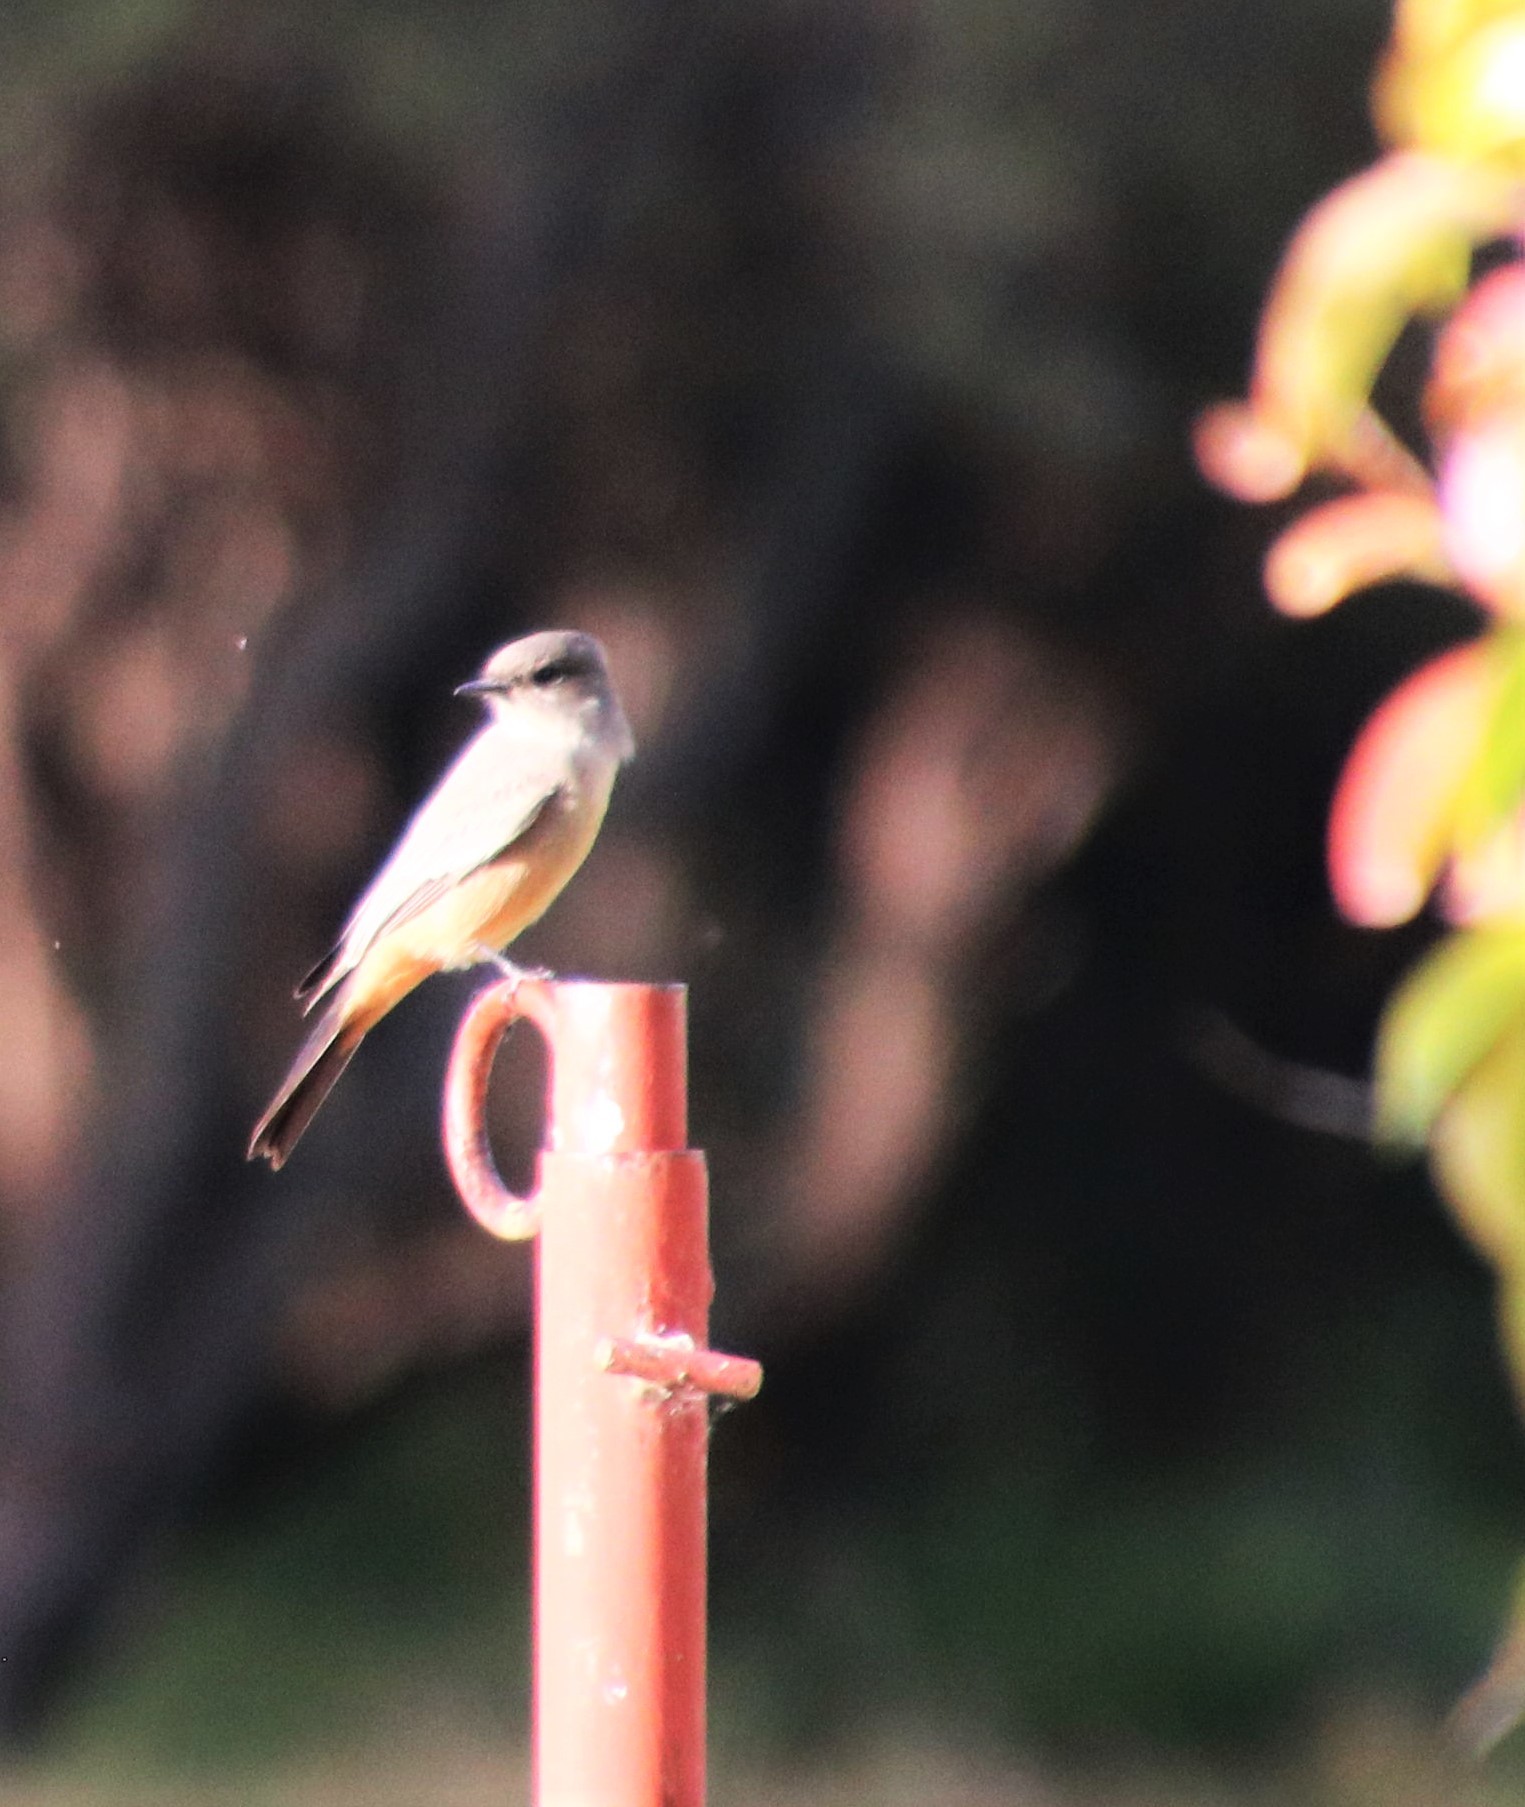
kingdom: Animalia
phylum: Chordata
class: Aves
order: Passeriformes
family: Tyrannidae
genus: Sayornis
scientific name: Sayornis saya
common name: Say's phoebe
